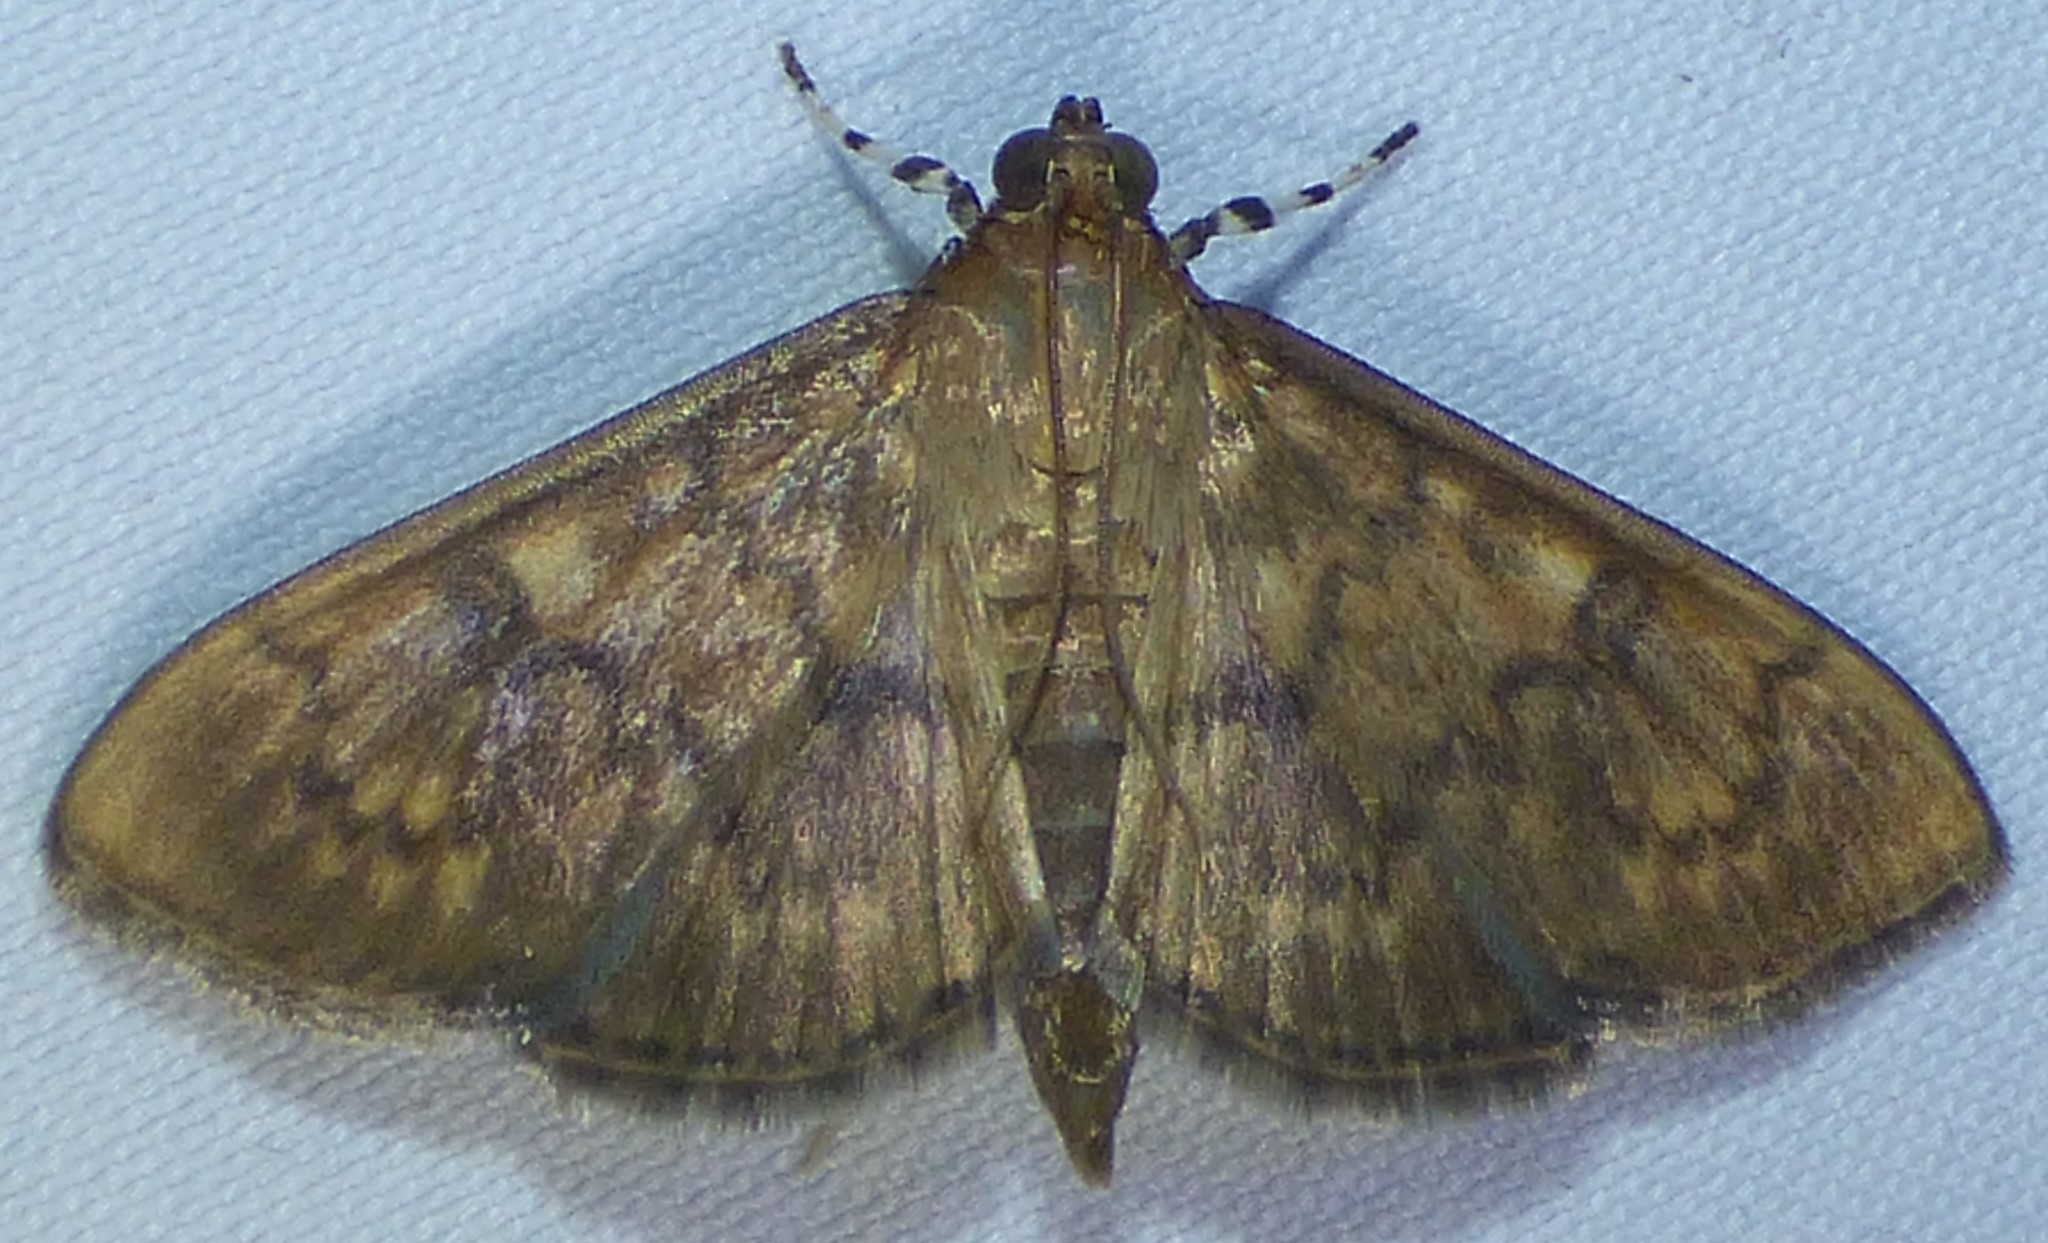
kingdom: Animalia
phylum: Arthropoda
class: Insecta
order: Lepidoptera
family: Crambidae
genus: Syllepte
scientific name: Syllepte obscuralis
